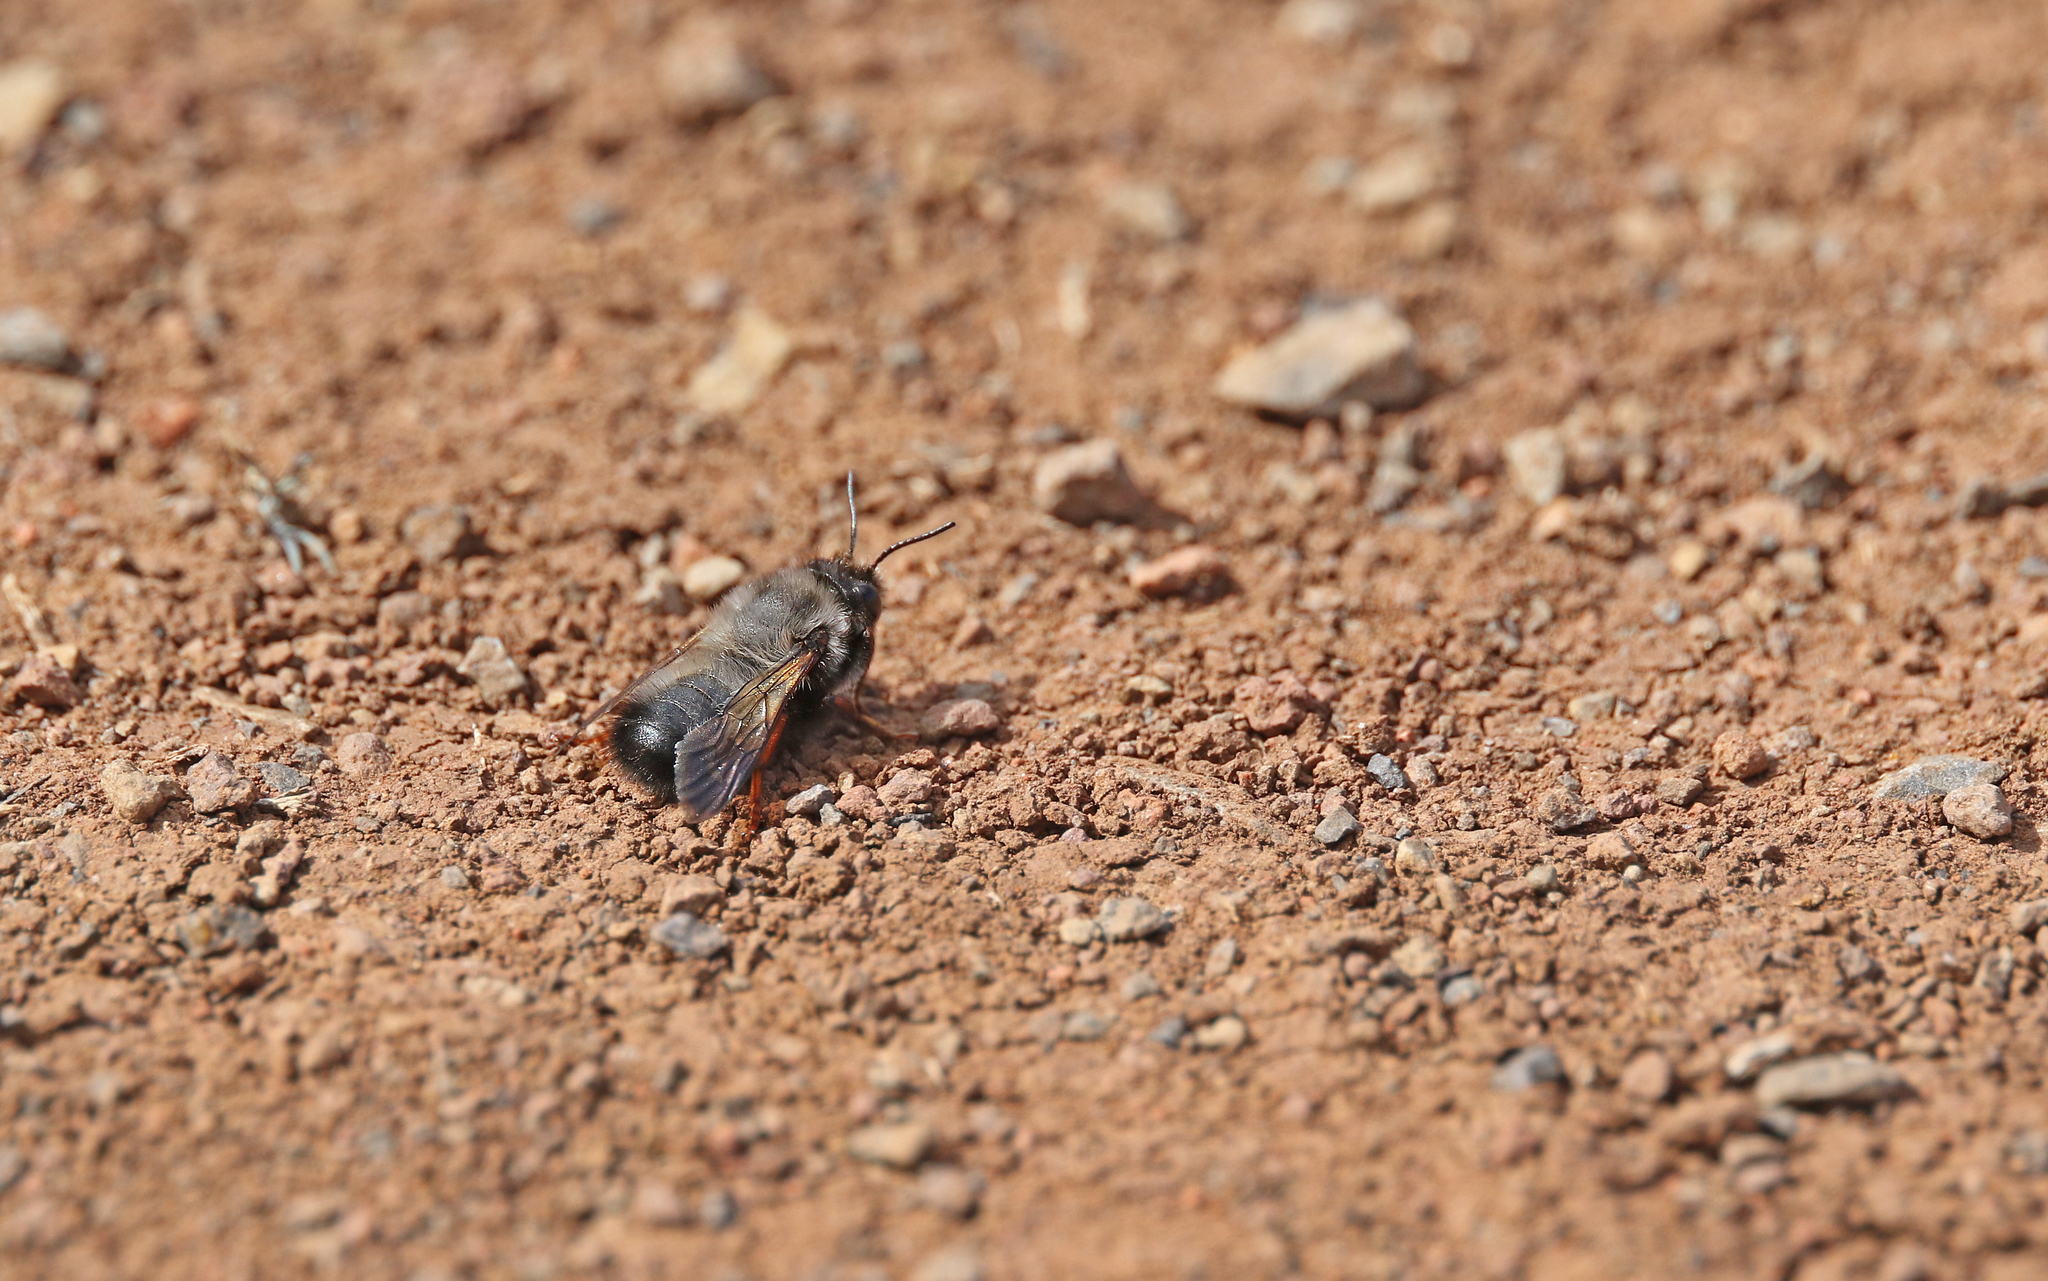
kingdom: Animalia
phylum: Arthropoda
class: Insecta
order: Hymenoptera
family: Megachilidae
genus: Megachile
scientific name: Megachile canescens
